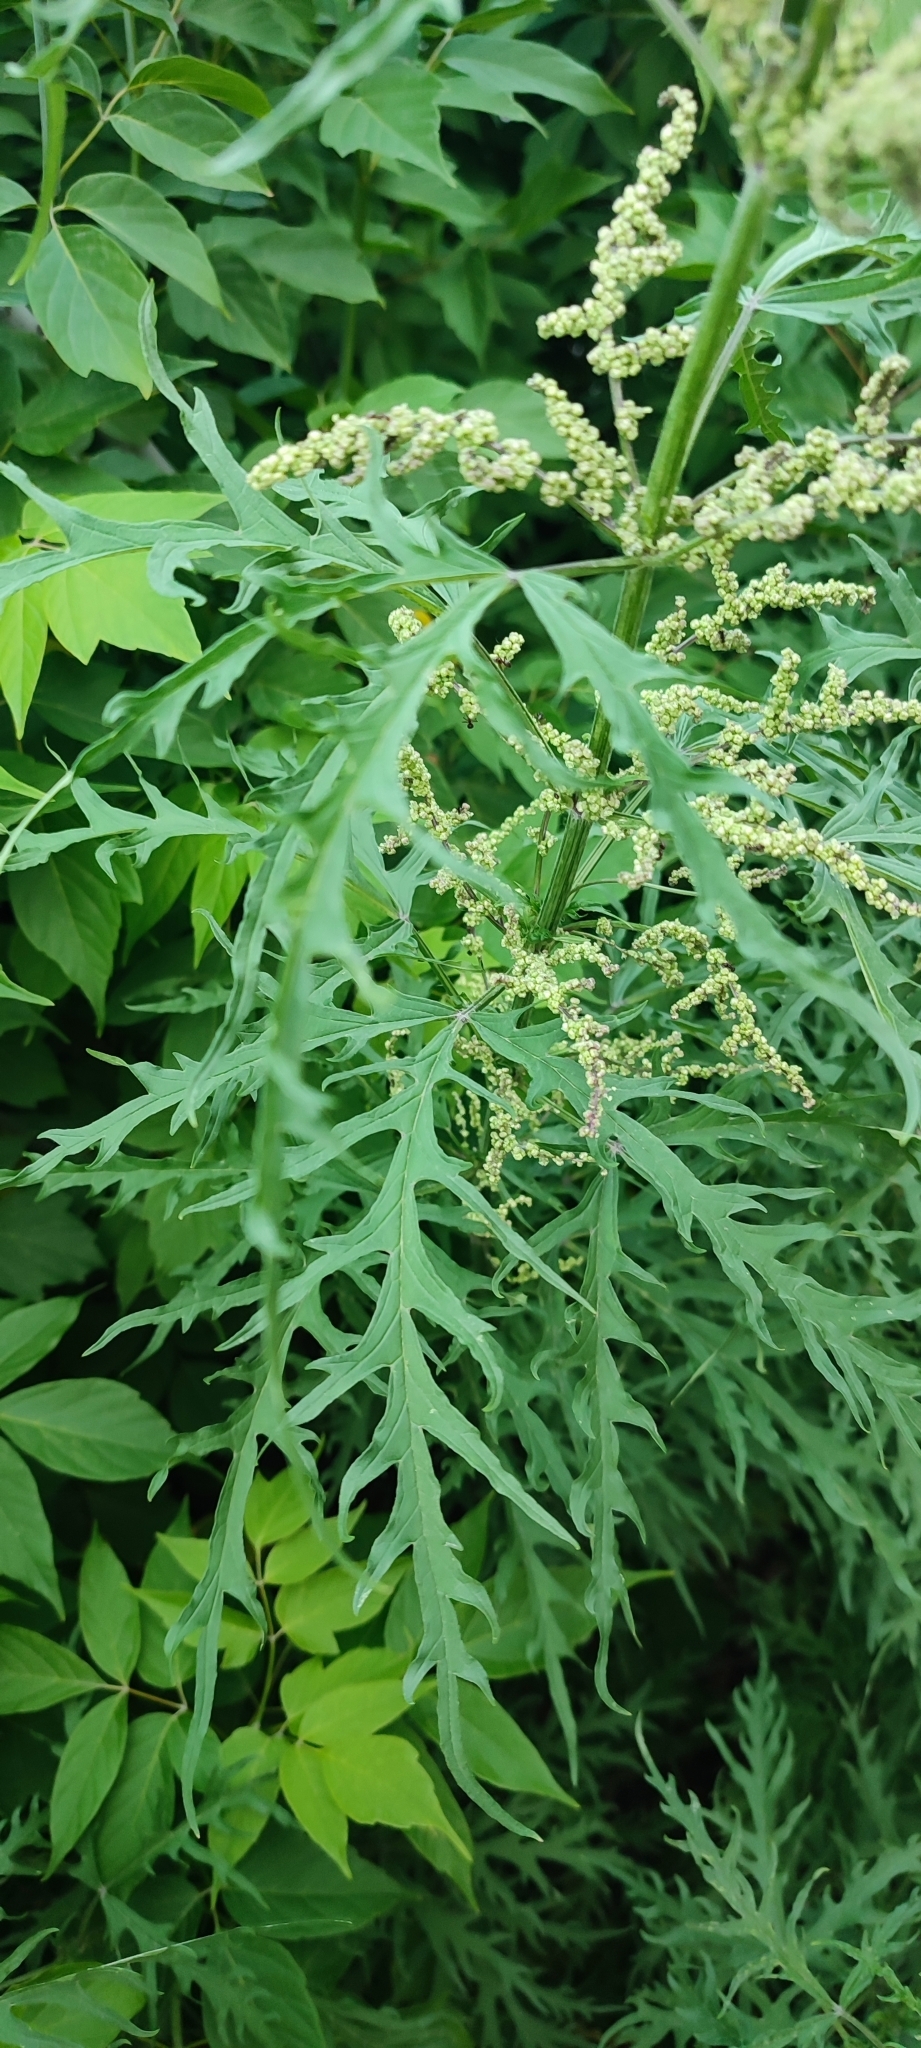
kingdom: Plantae
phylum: Tracheophyta
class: Magnoliopsida
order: Rosales
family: Urticaceae
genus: Urtica
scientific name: Urtica cannabina
